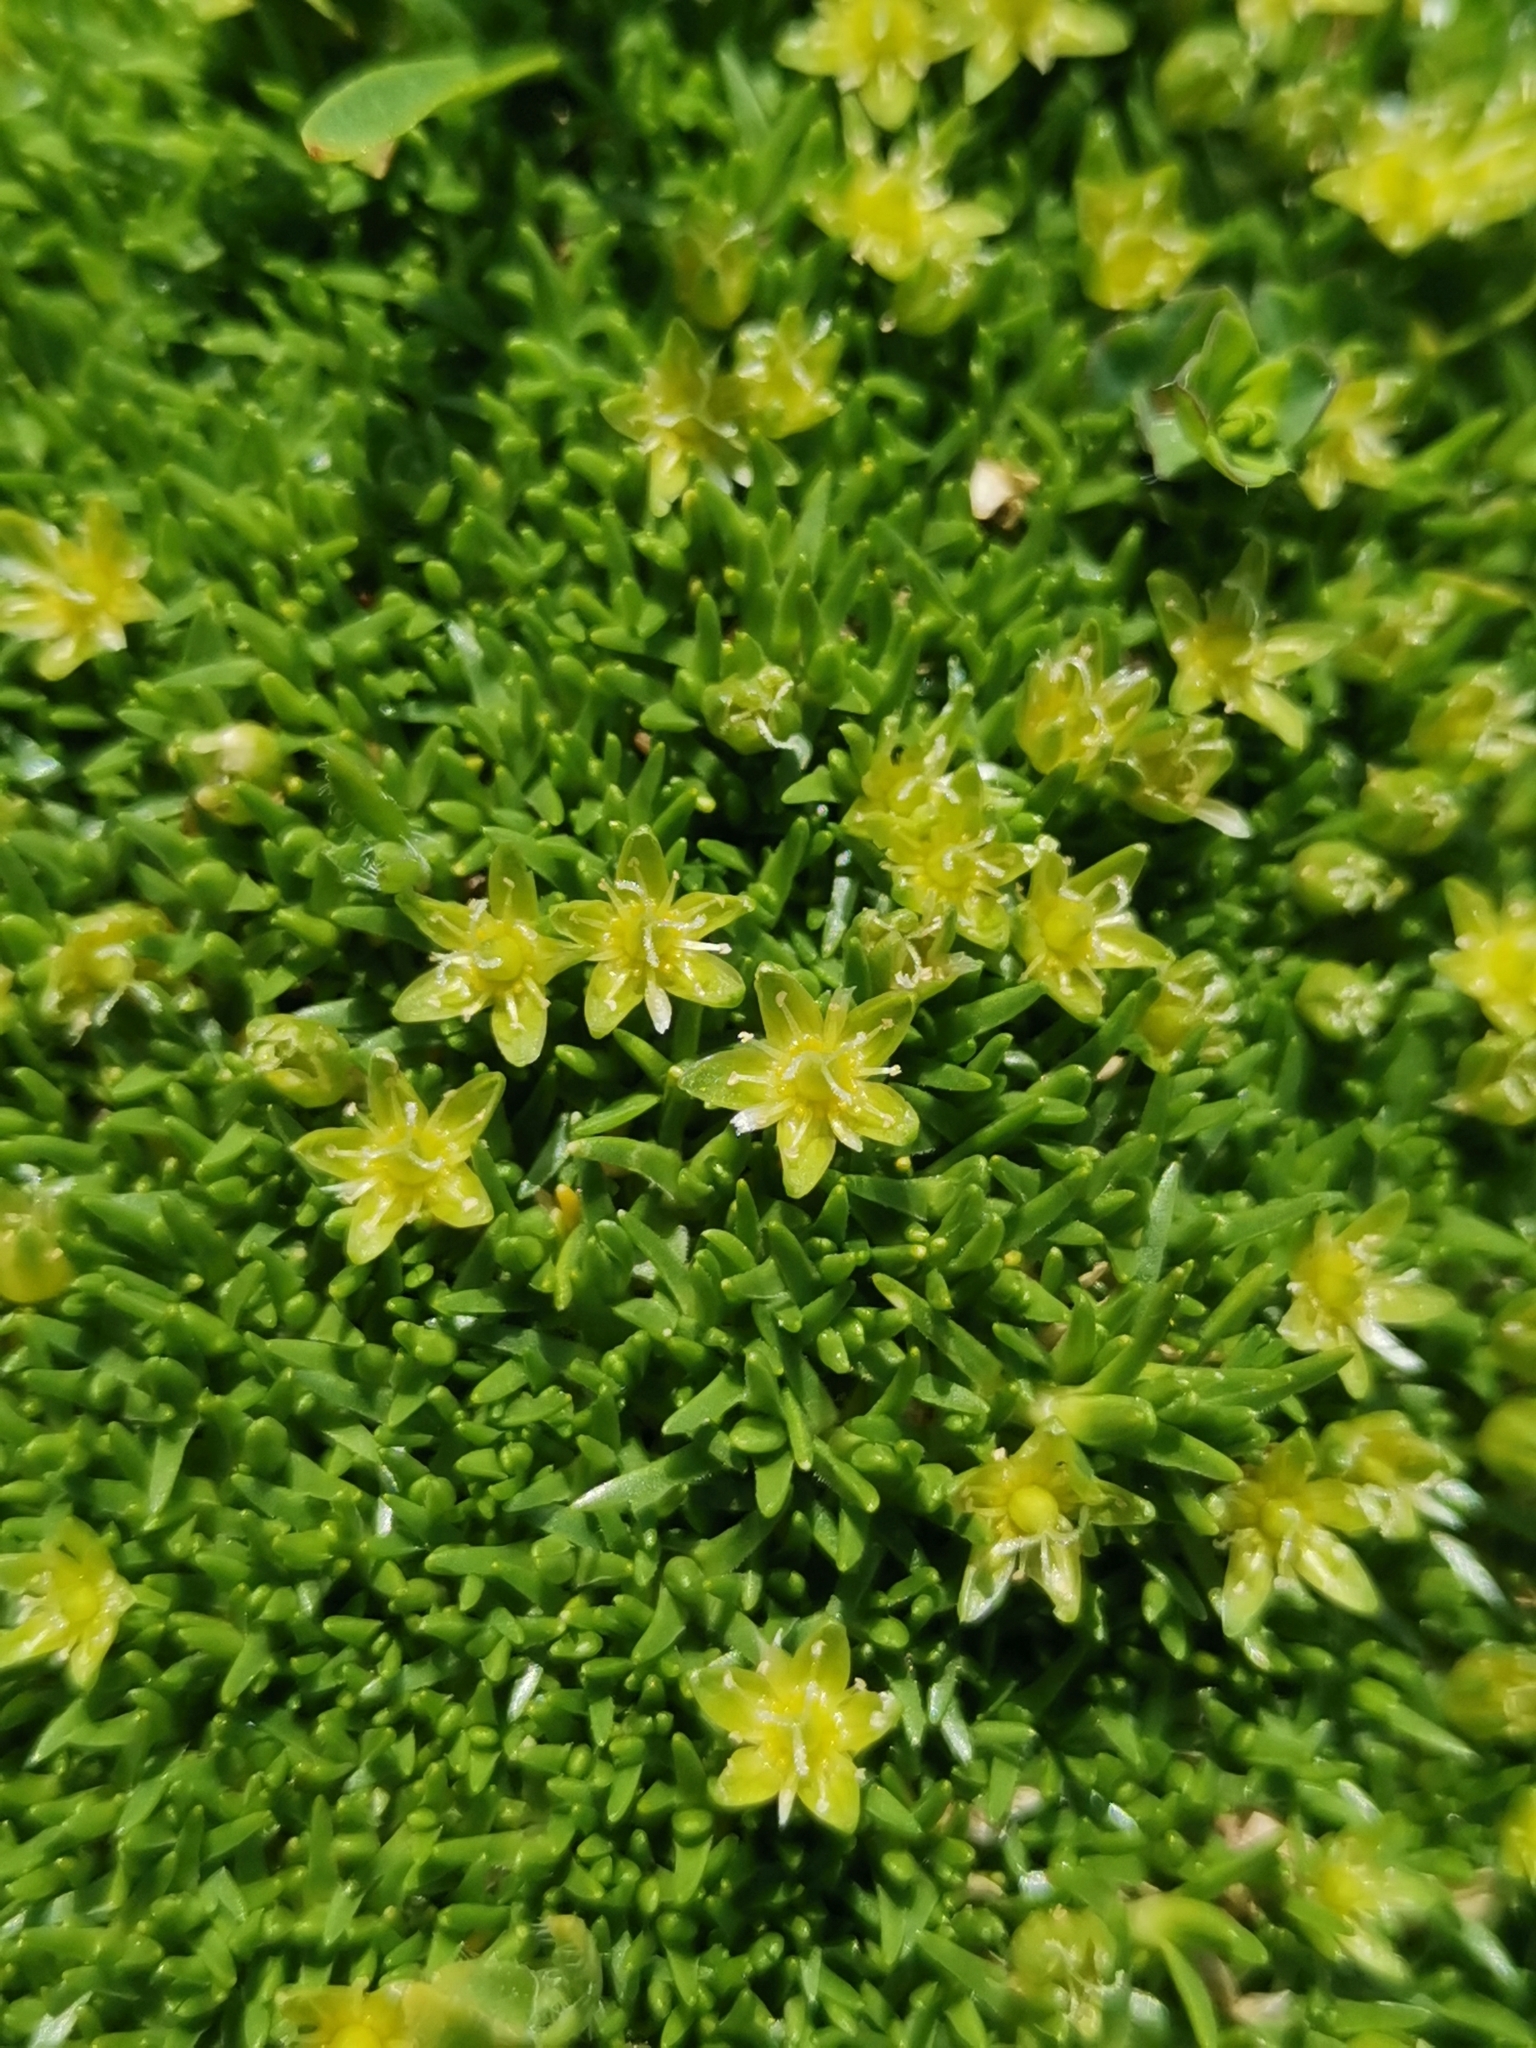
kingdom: Plantae
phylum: Tracheophyta
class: Magnoliopsida
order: Caryophyllales
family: Caryophyllaceae
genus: Cherleria
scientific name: Cherleria sedoides
